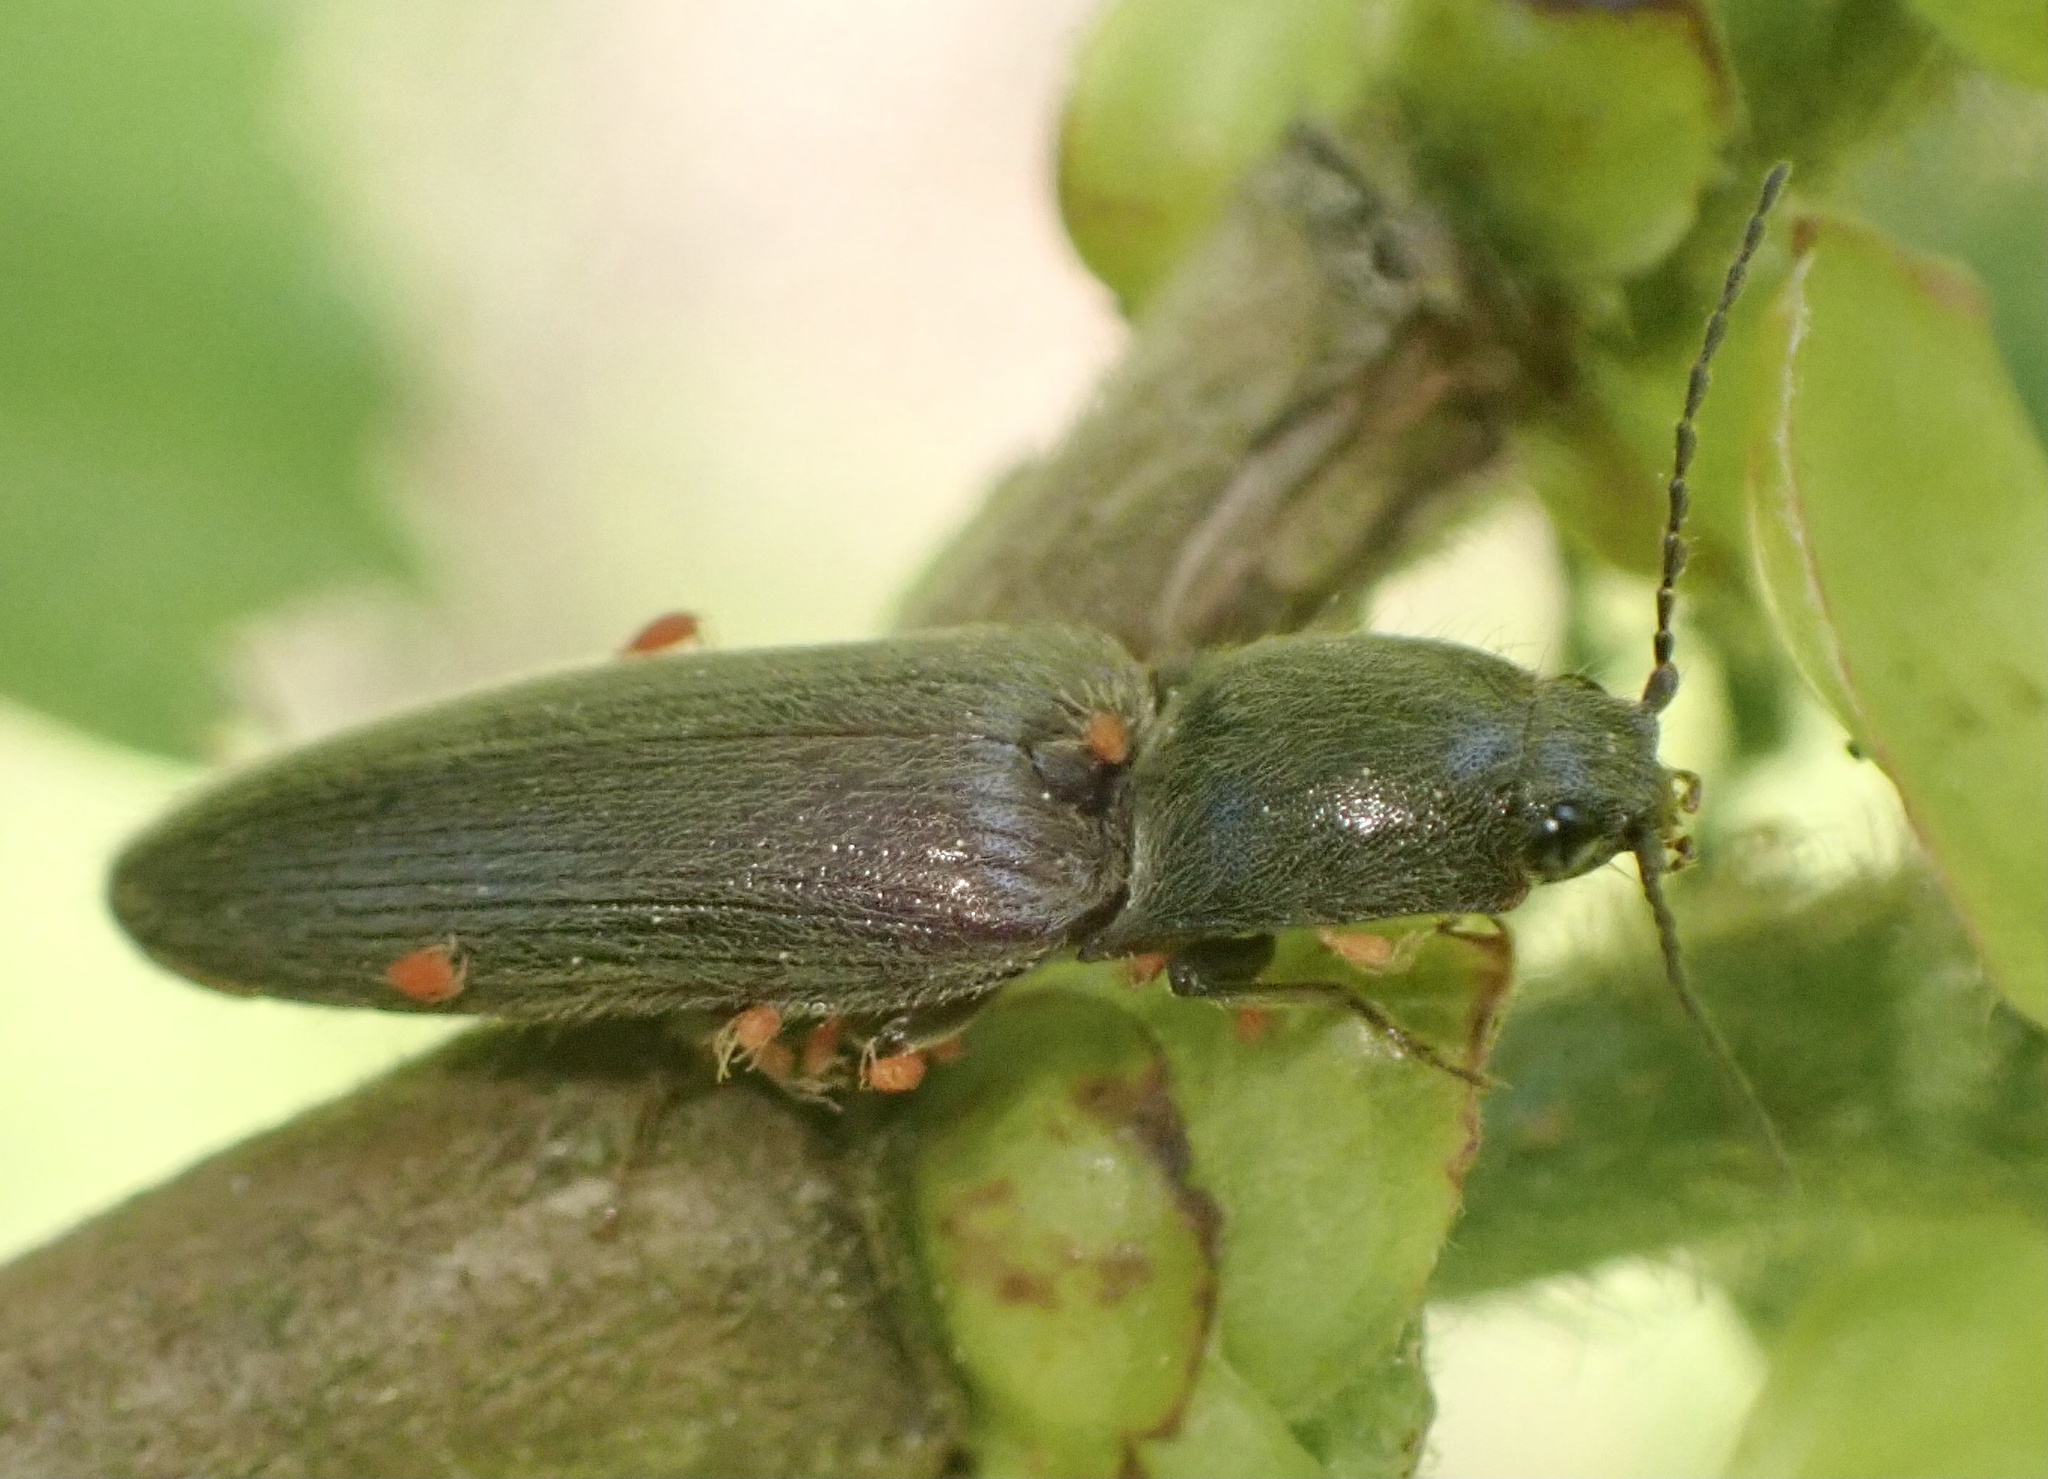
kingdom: Animalia
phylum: Arthropoda
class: Insecta
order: Coleoptera
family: Elateridae
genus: Athous
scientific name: Athous haemorrhoidalis
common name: Red-brown click beetle
